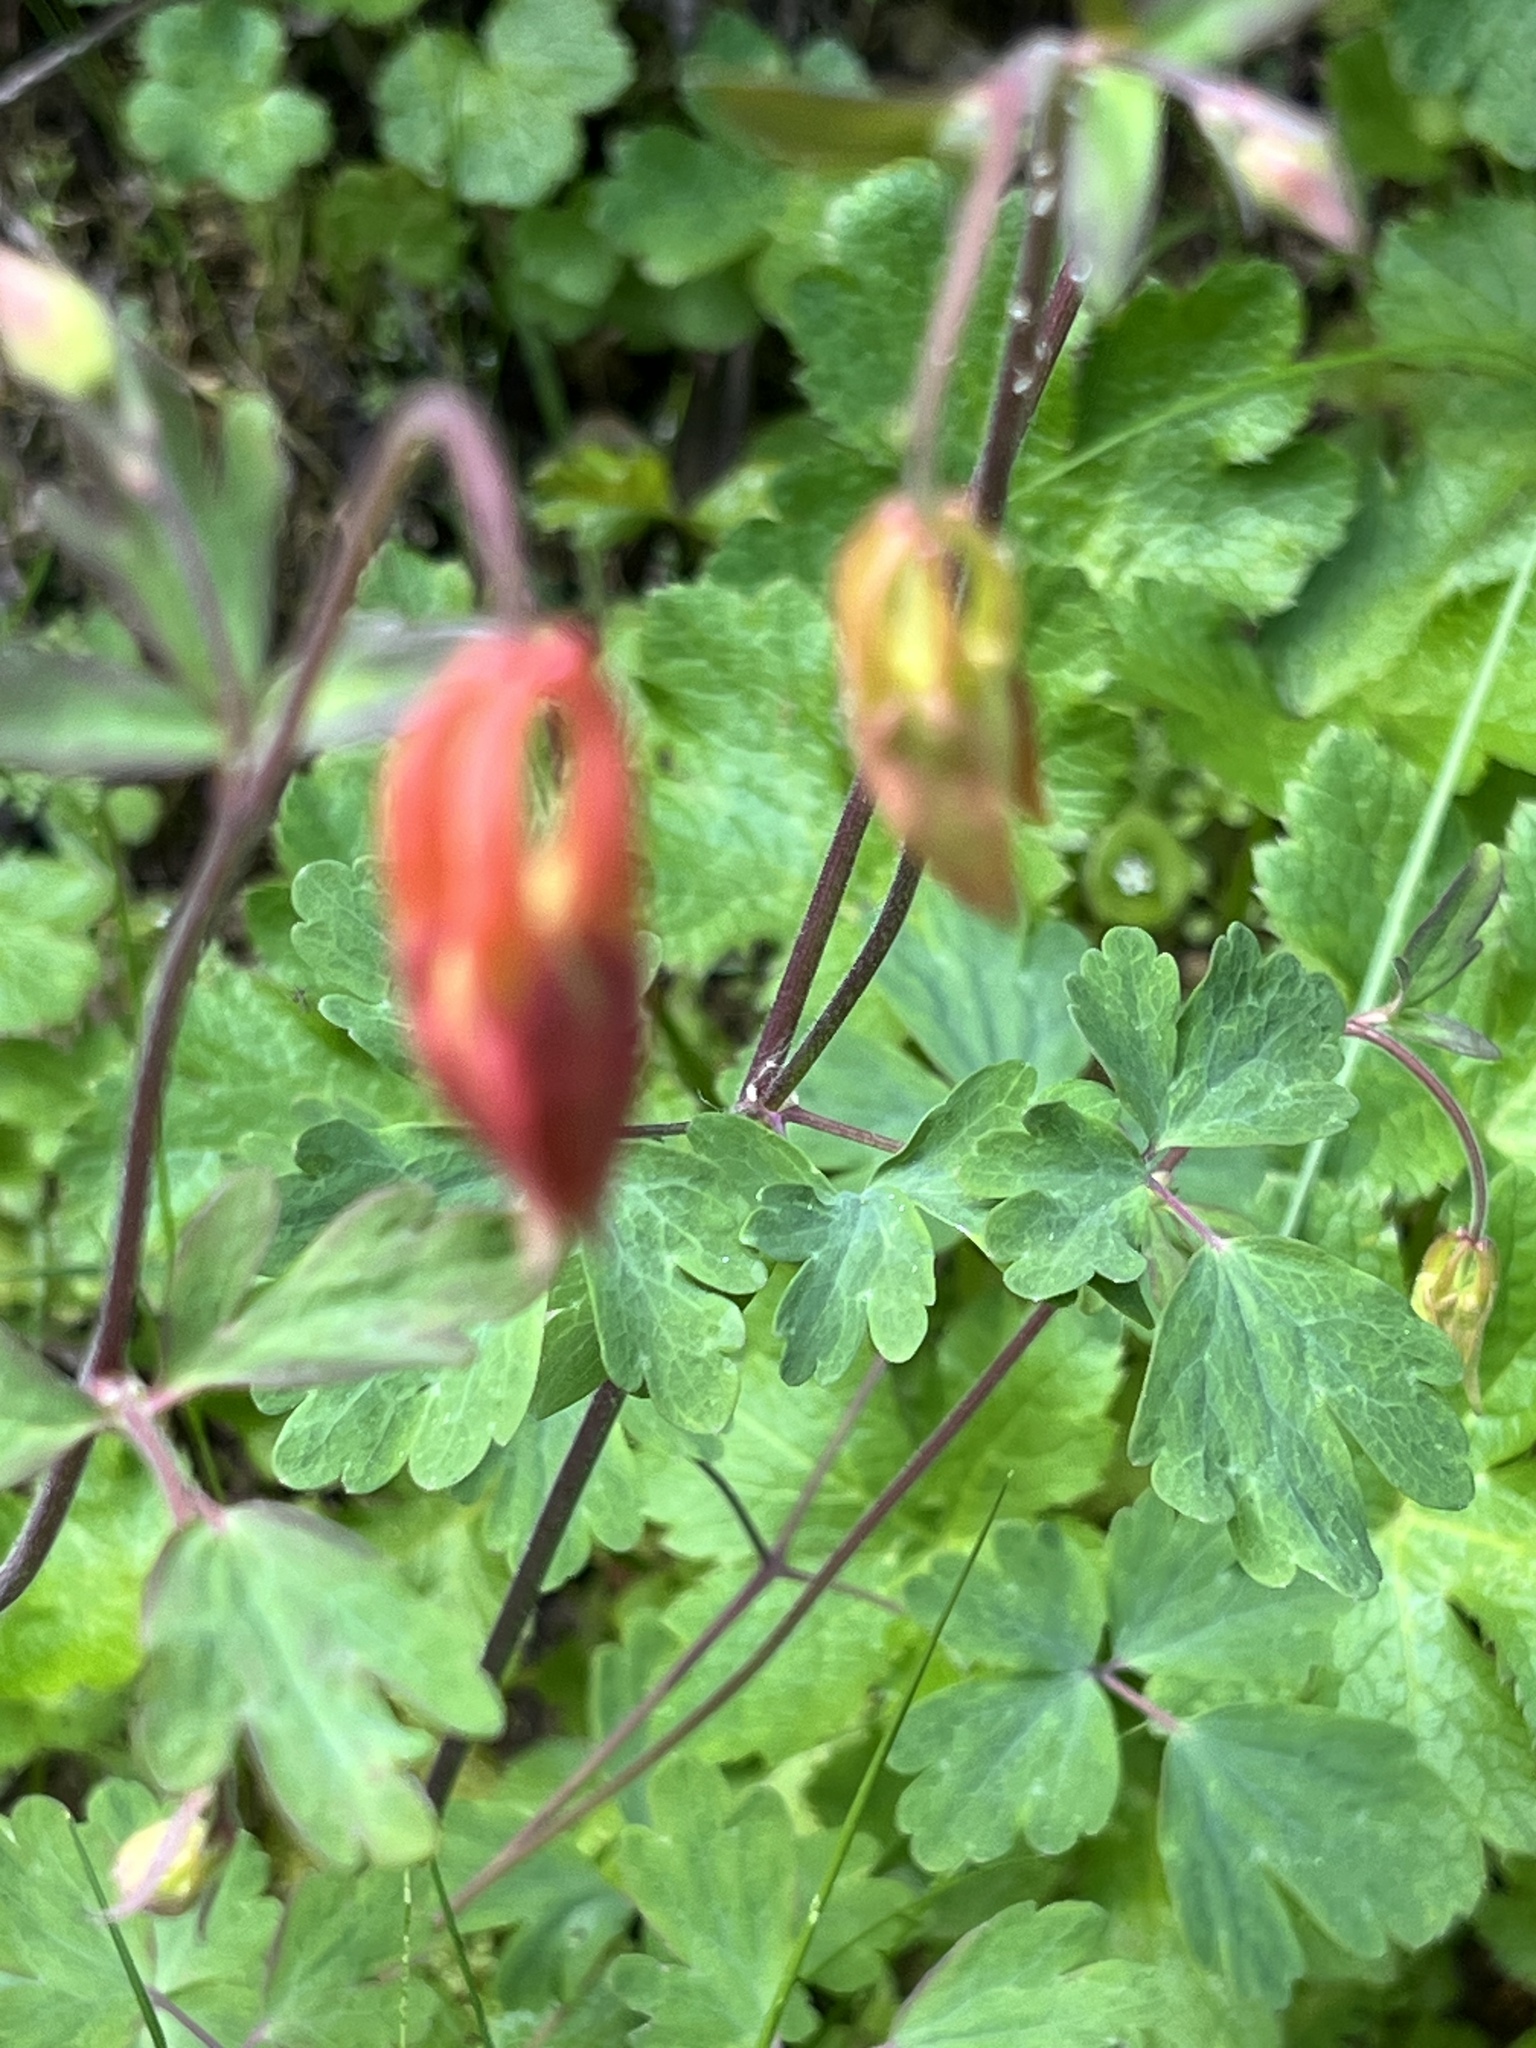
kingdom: Plantae
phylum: Tracheophyta
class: Magnoliopsida
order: Ranunculales
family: Ranunculaceae
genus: Aquilegia
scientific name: Aquilegia formosa
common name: Sitka columbine
